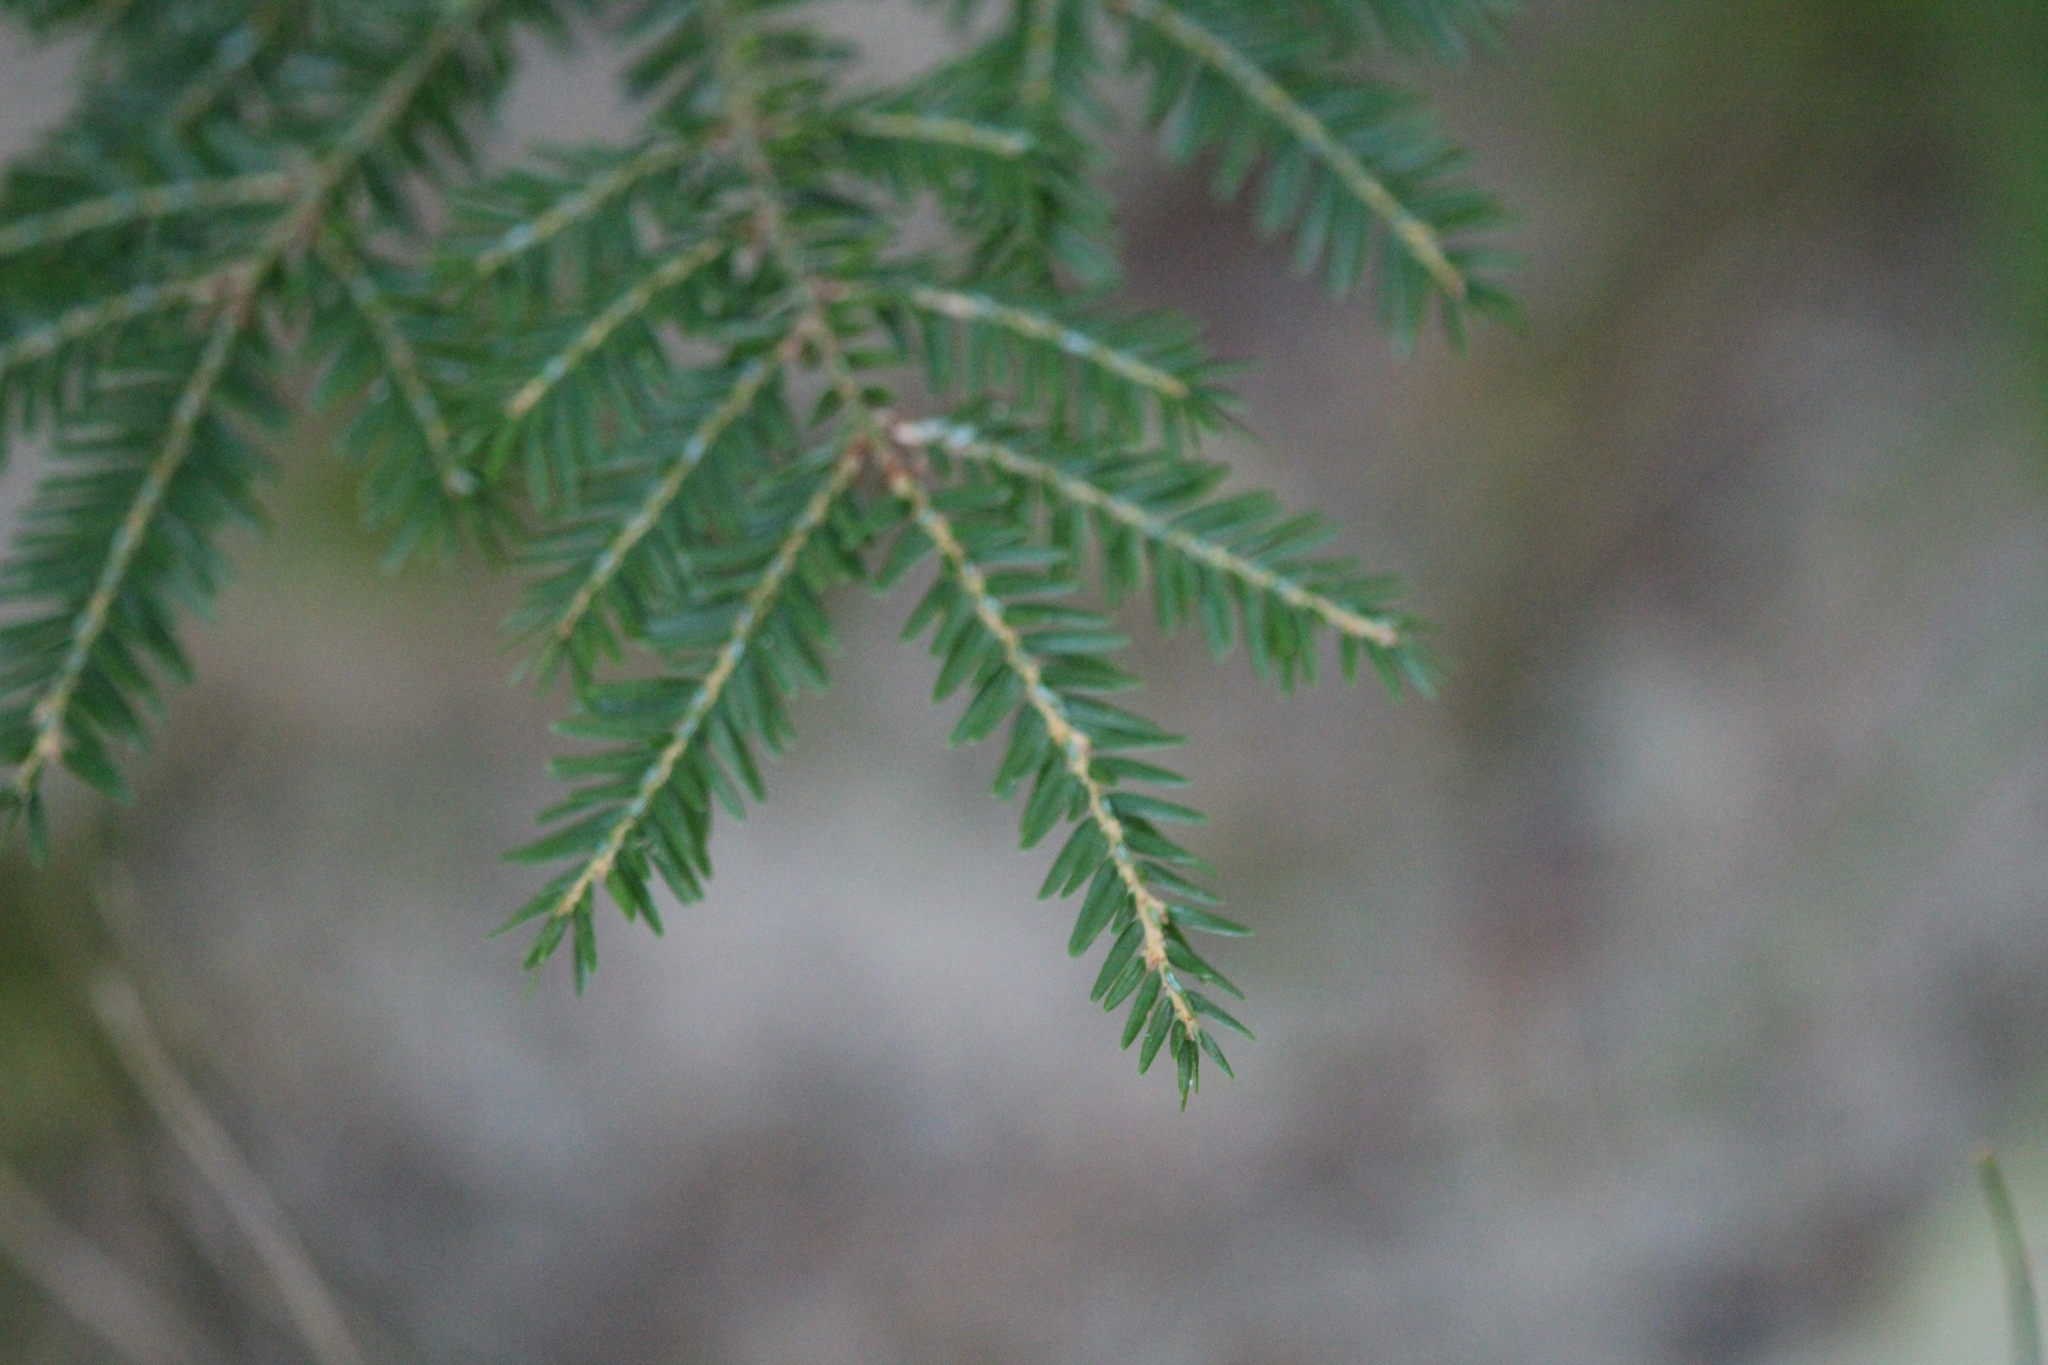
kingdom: Plantae
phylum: Tracheophyta
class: Pinopsida
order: Pinales
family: Pinaceae
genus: Tsuga
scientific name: Tsuga canadensis
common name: Eastern hemlock
